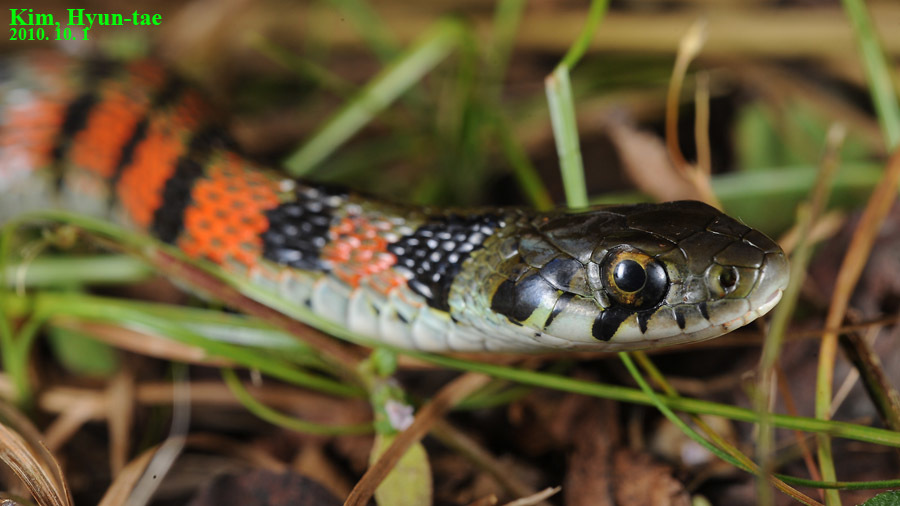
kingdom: Animalia
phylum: Chordata
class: Squamata
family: Colubridae
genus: Rhabdophis
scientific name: Rhabdophis tigrinus
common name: Tiger keelback
